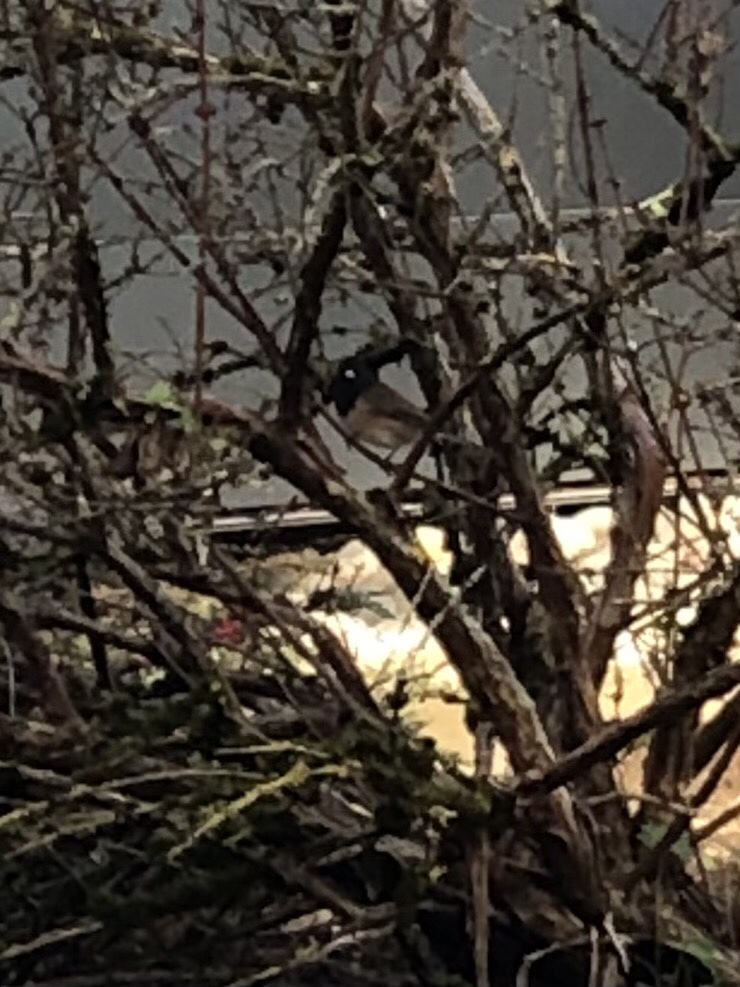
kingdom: Animalia
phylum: Chordata
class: Aves
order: Passeriformes
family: Passerellidae
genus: Junco
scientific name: Junco hyemalis
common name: Dark-eyed junco
